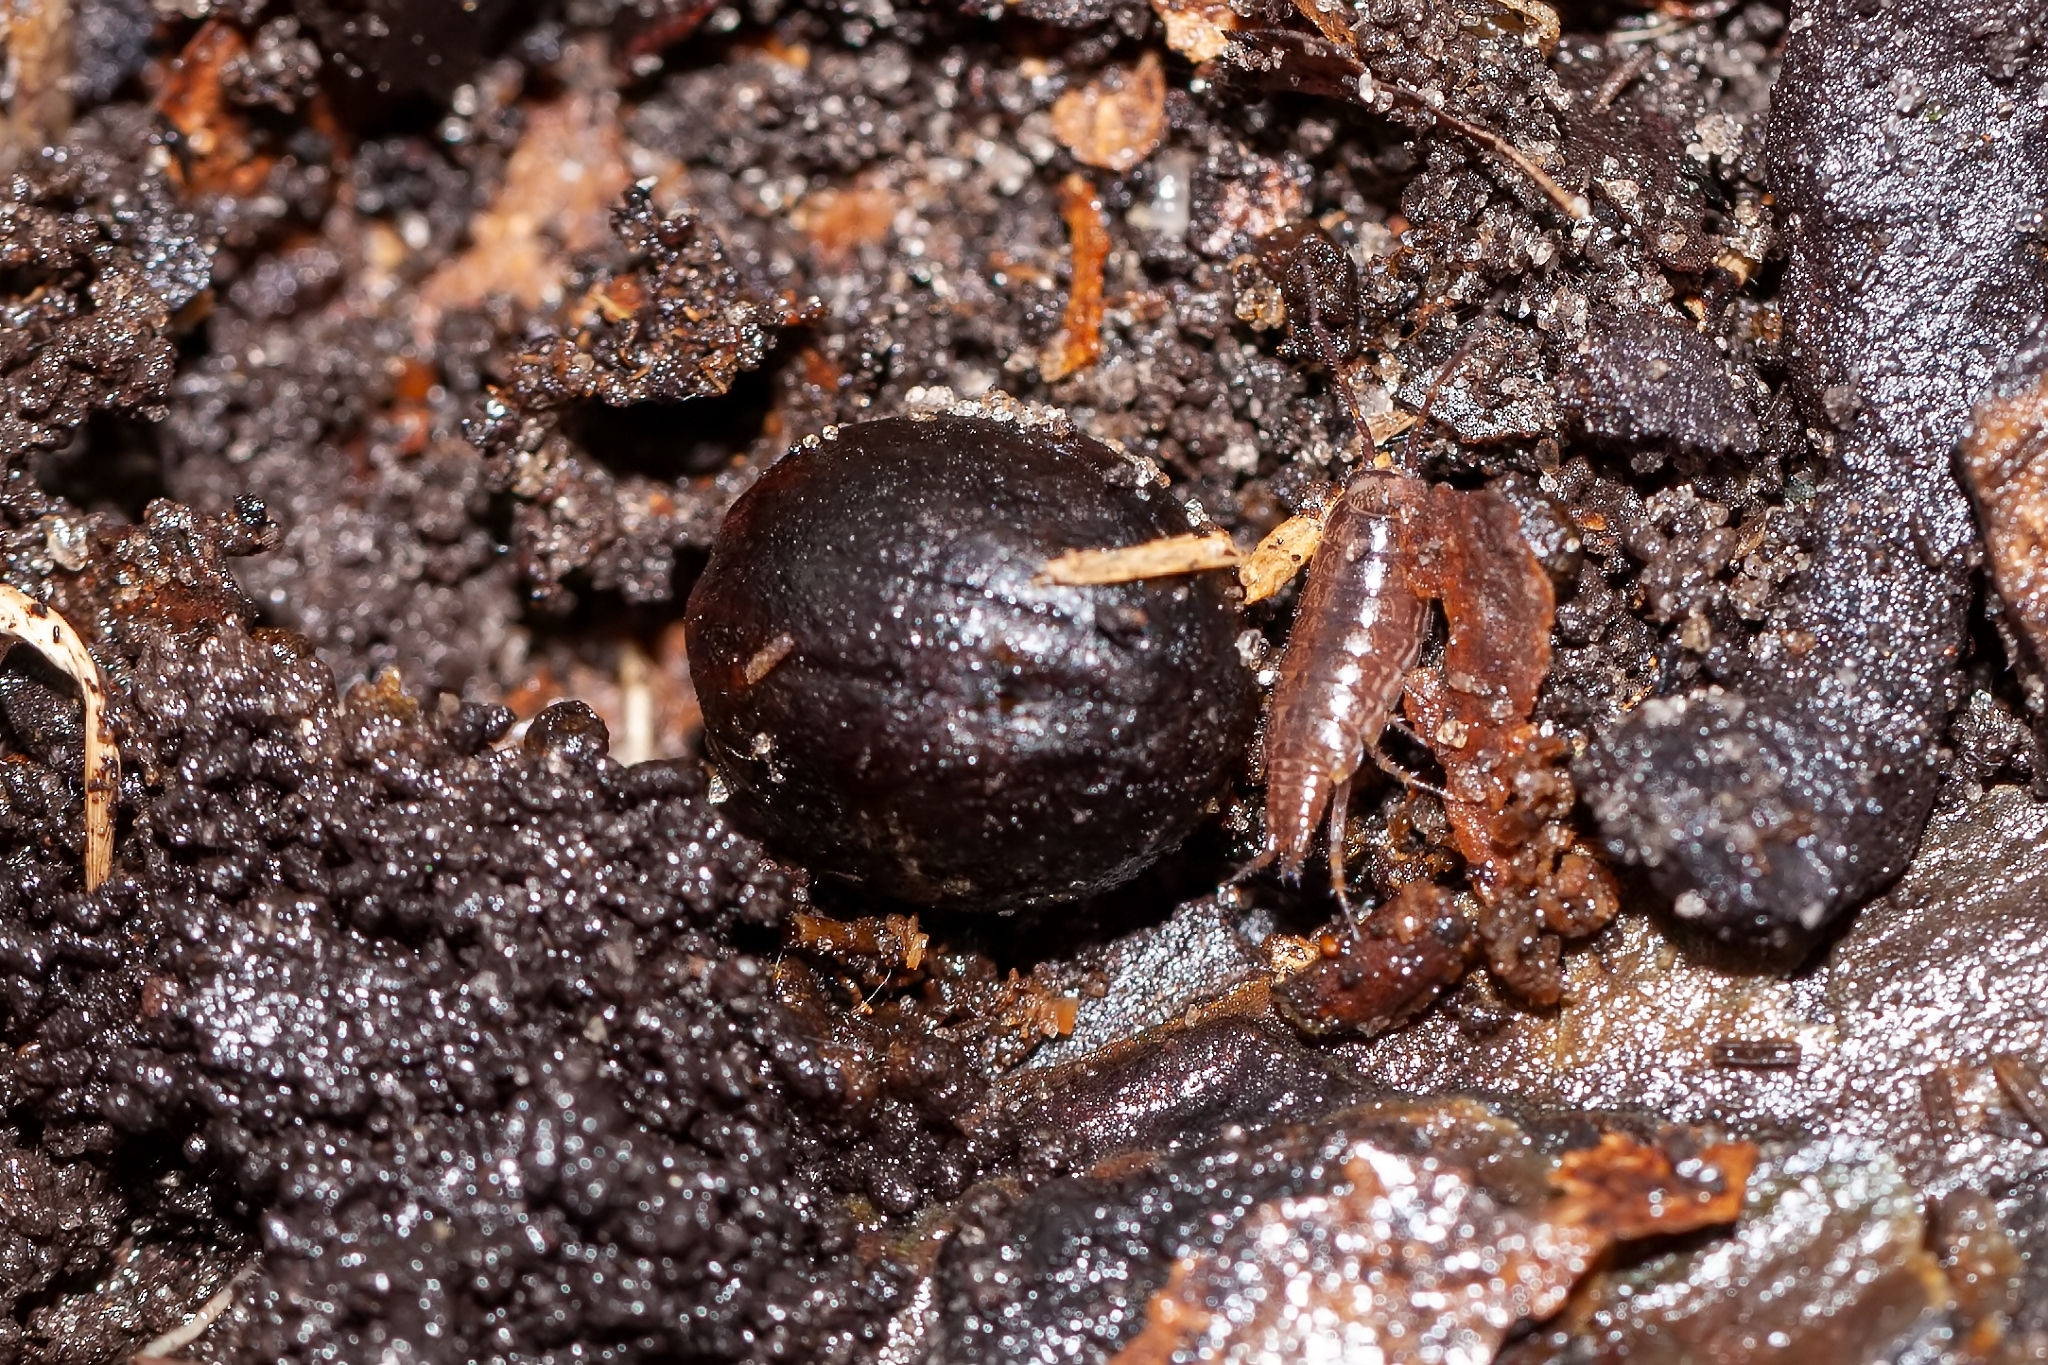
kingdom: Animalia
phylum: Arthropoda
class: Malacostraca
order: Isopoda
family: Philosciidae
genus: Atlantoscia
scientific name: Atlantoscia floridana
